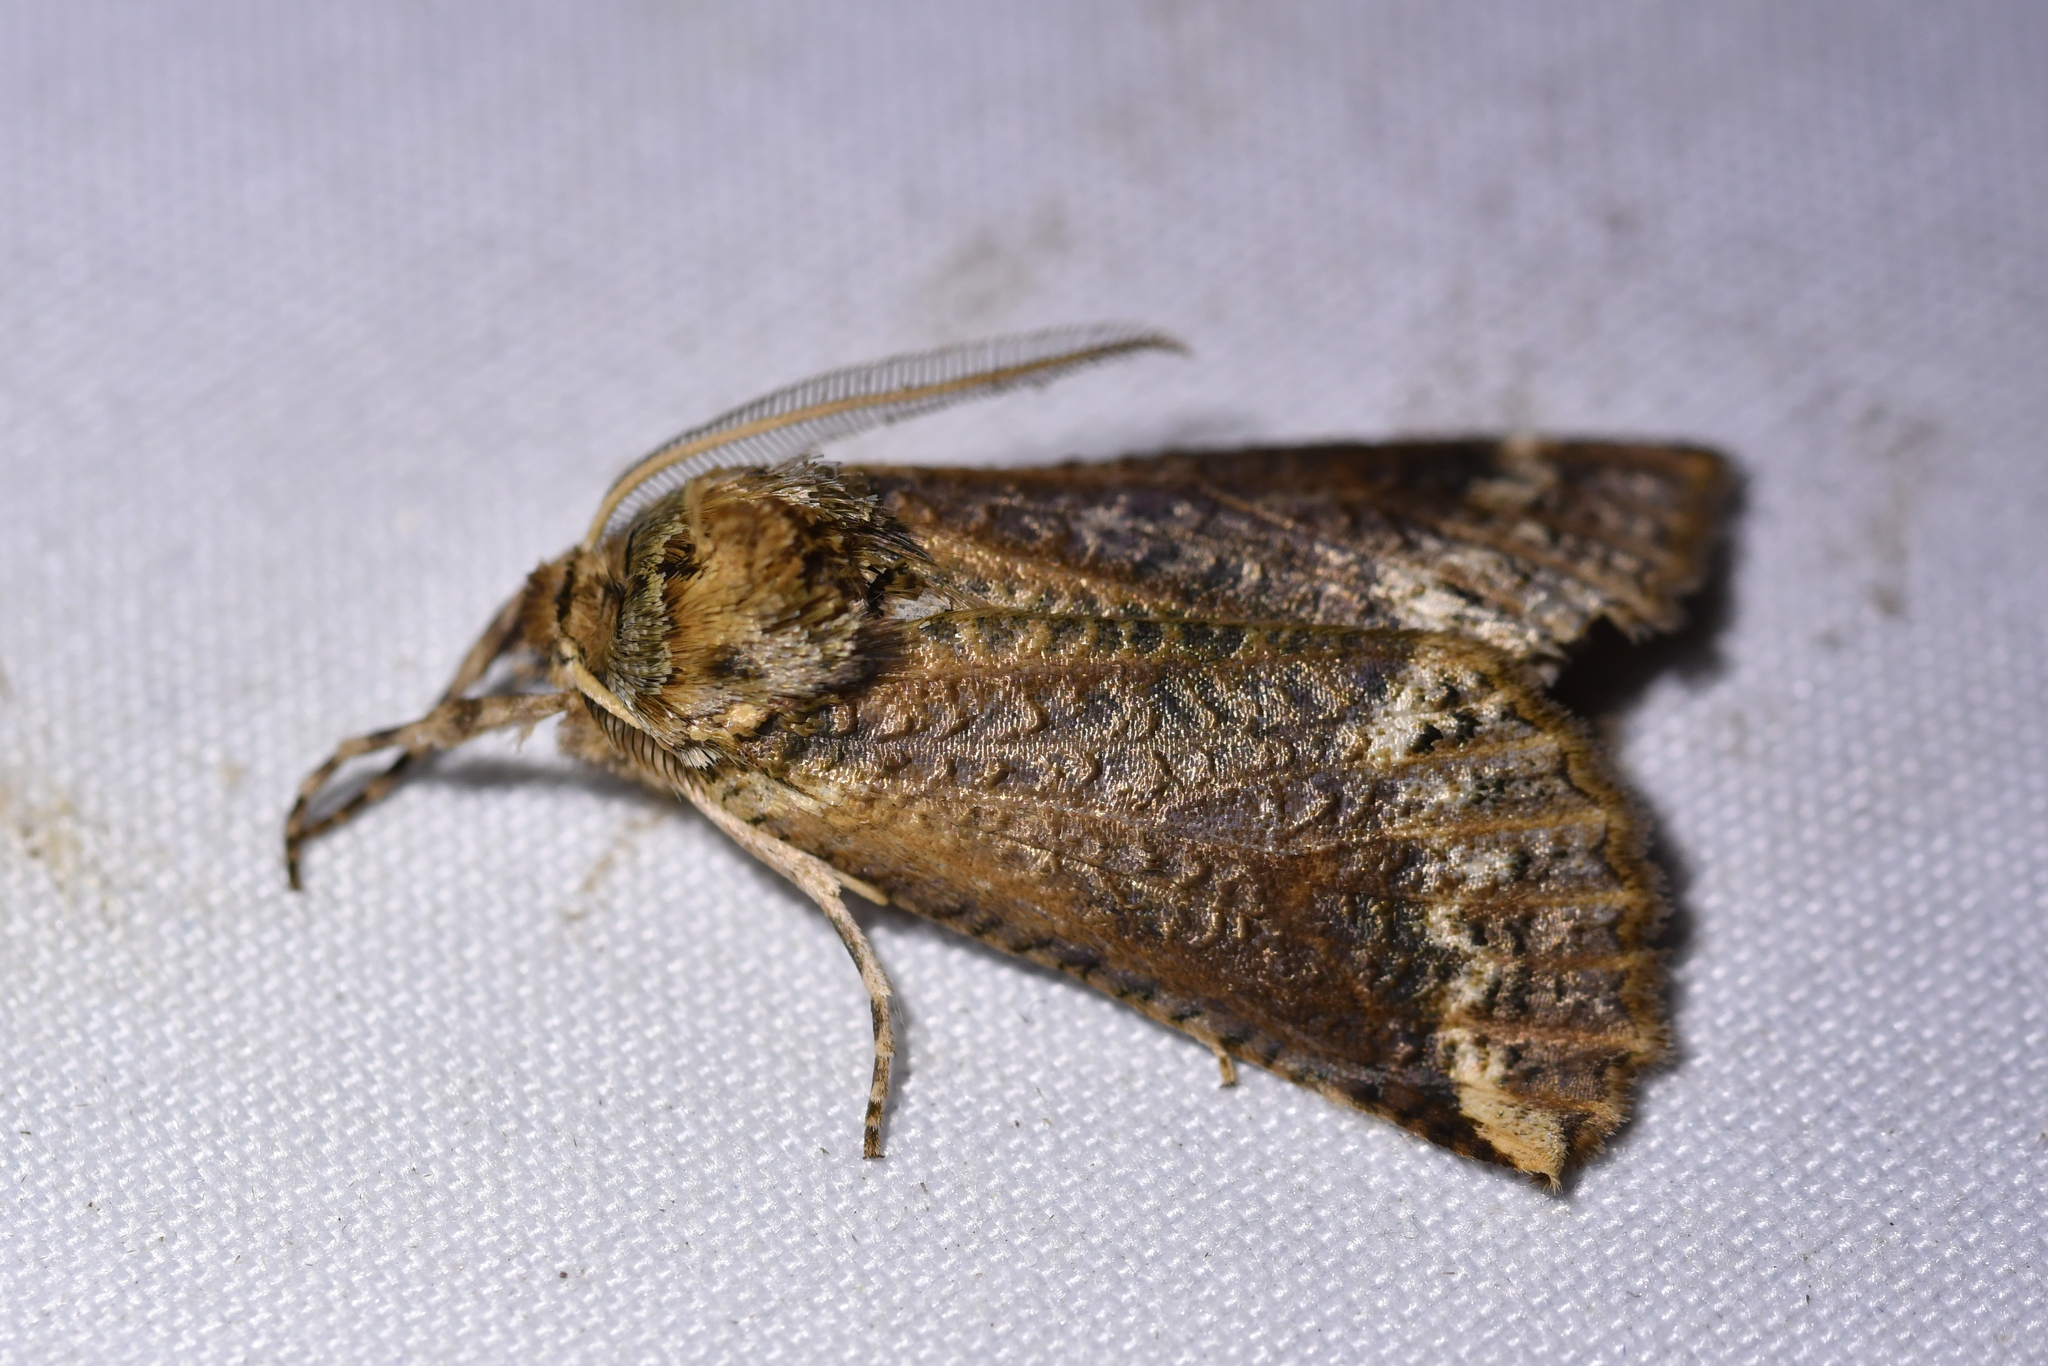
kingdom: Animalia
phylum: Arthropoda
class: Insecta
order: Lepidoptera
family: Geometridae
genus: Declana
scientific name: Declana
